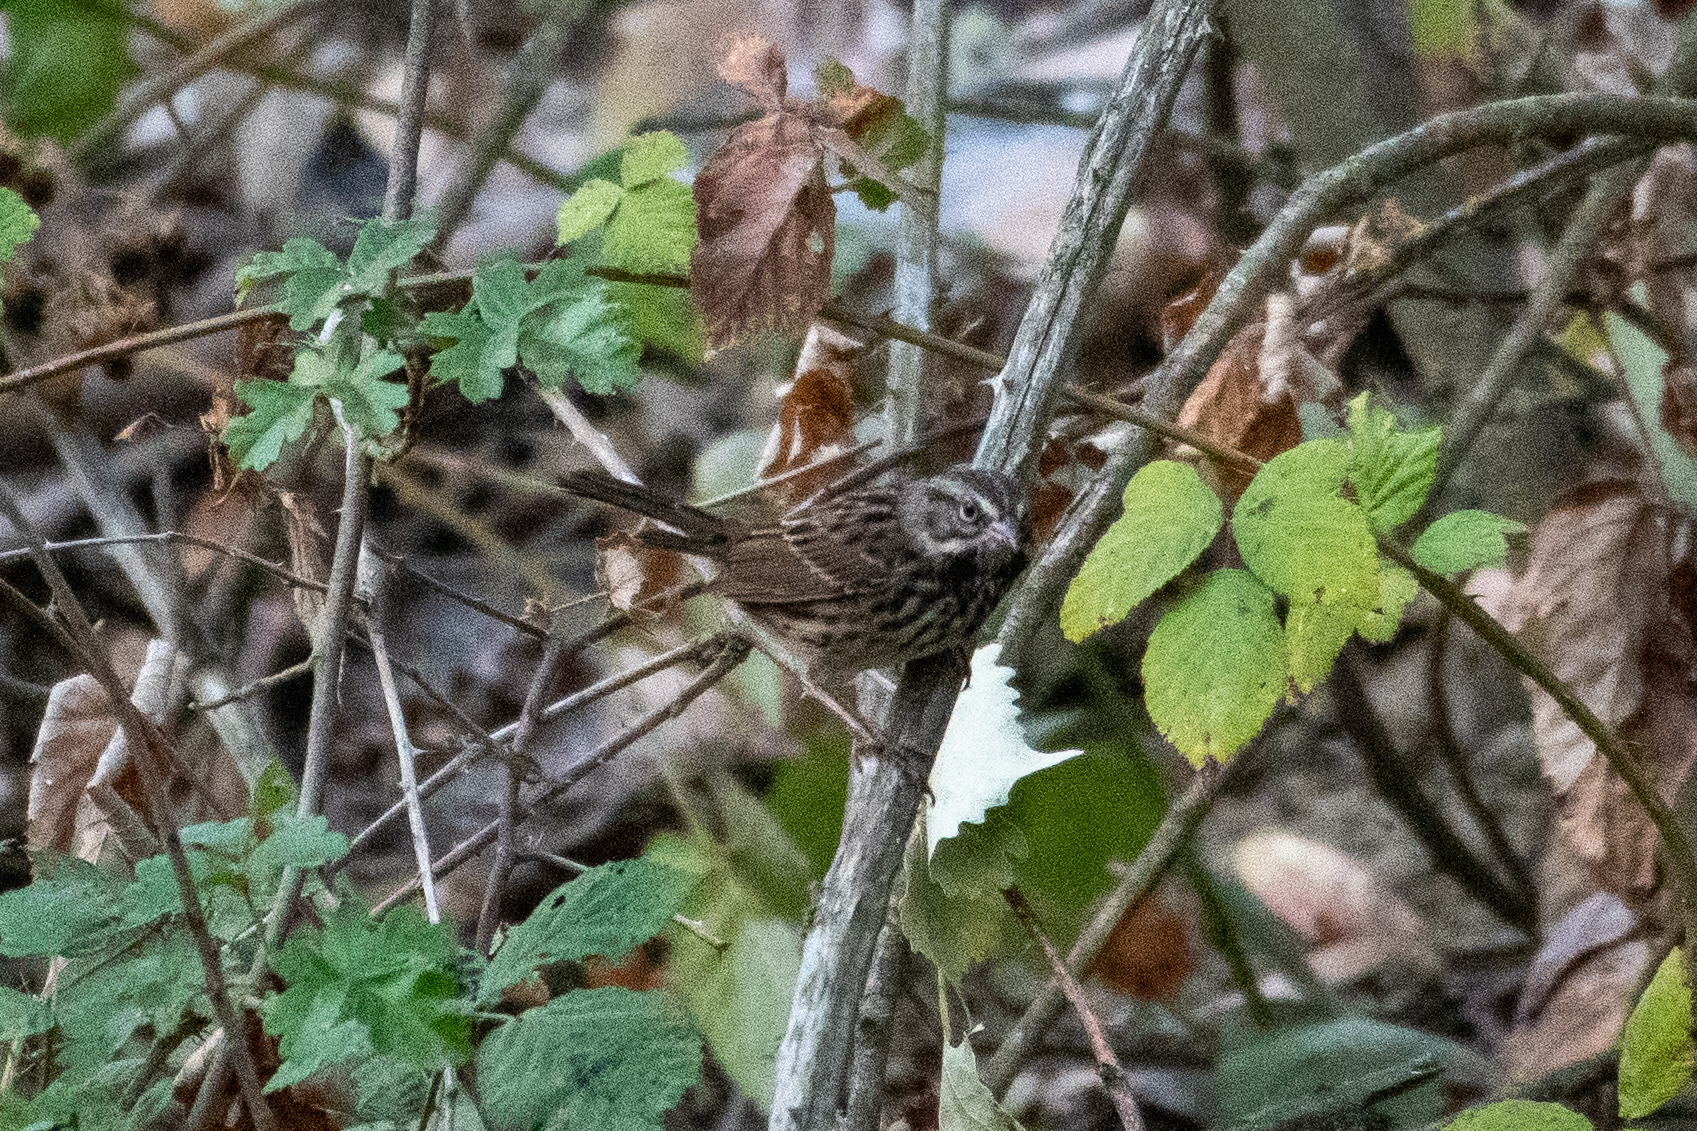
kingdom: Animalia
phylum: Chordata
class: Aves
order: Passeriformes
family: Passerellidae
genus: Melospiza
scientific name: Melospiza melodia
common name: Song sparrow
